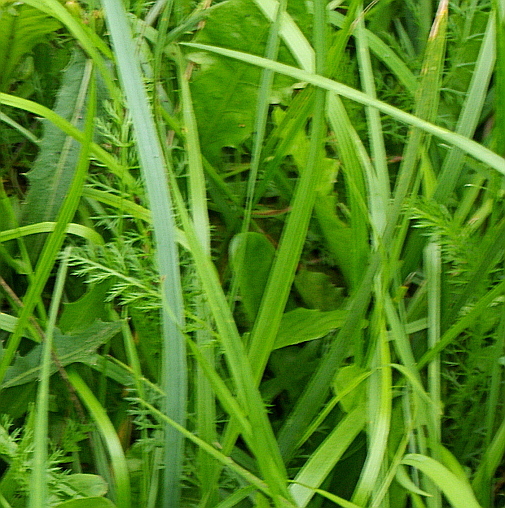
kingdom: Plantae
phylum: Tracheophyta
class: Magnoliopsida
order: Asterales
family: Asteraceae
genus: Achillea
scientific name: Achillea millefolium
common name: Yarrow
